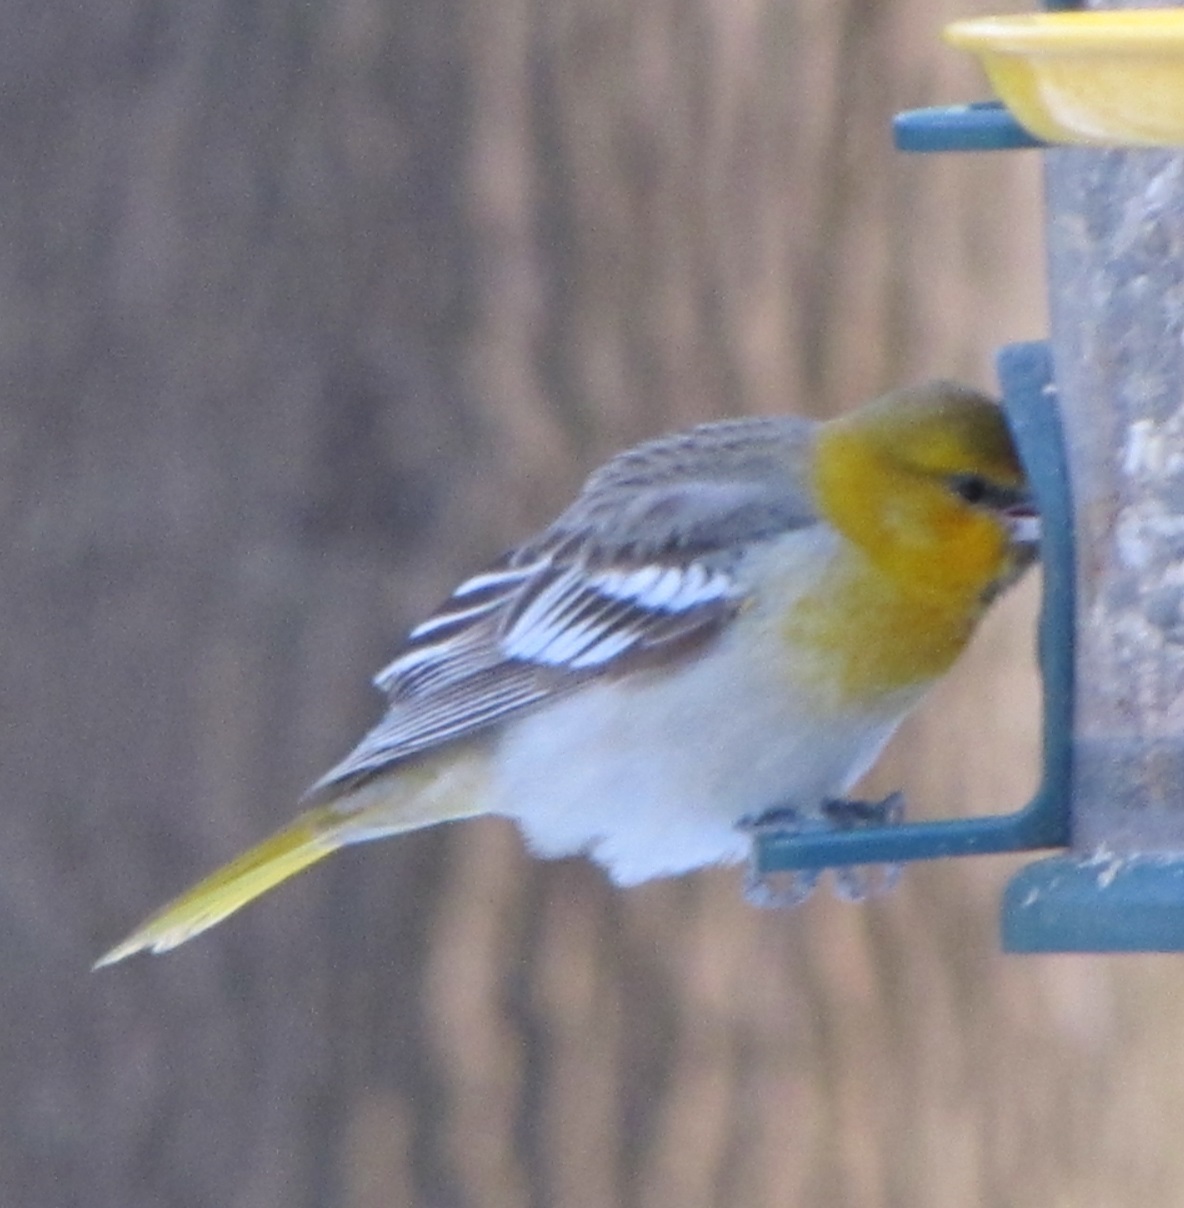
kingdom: Animalia
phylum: Chordata
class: Aves
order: Passeriformes
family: Icteridae
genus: Icterus
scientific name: Icterus bullockii
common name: Bullock's oriole
